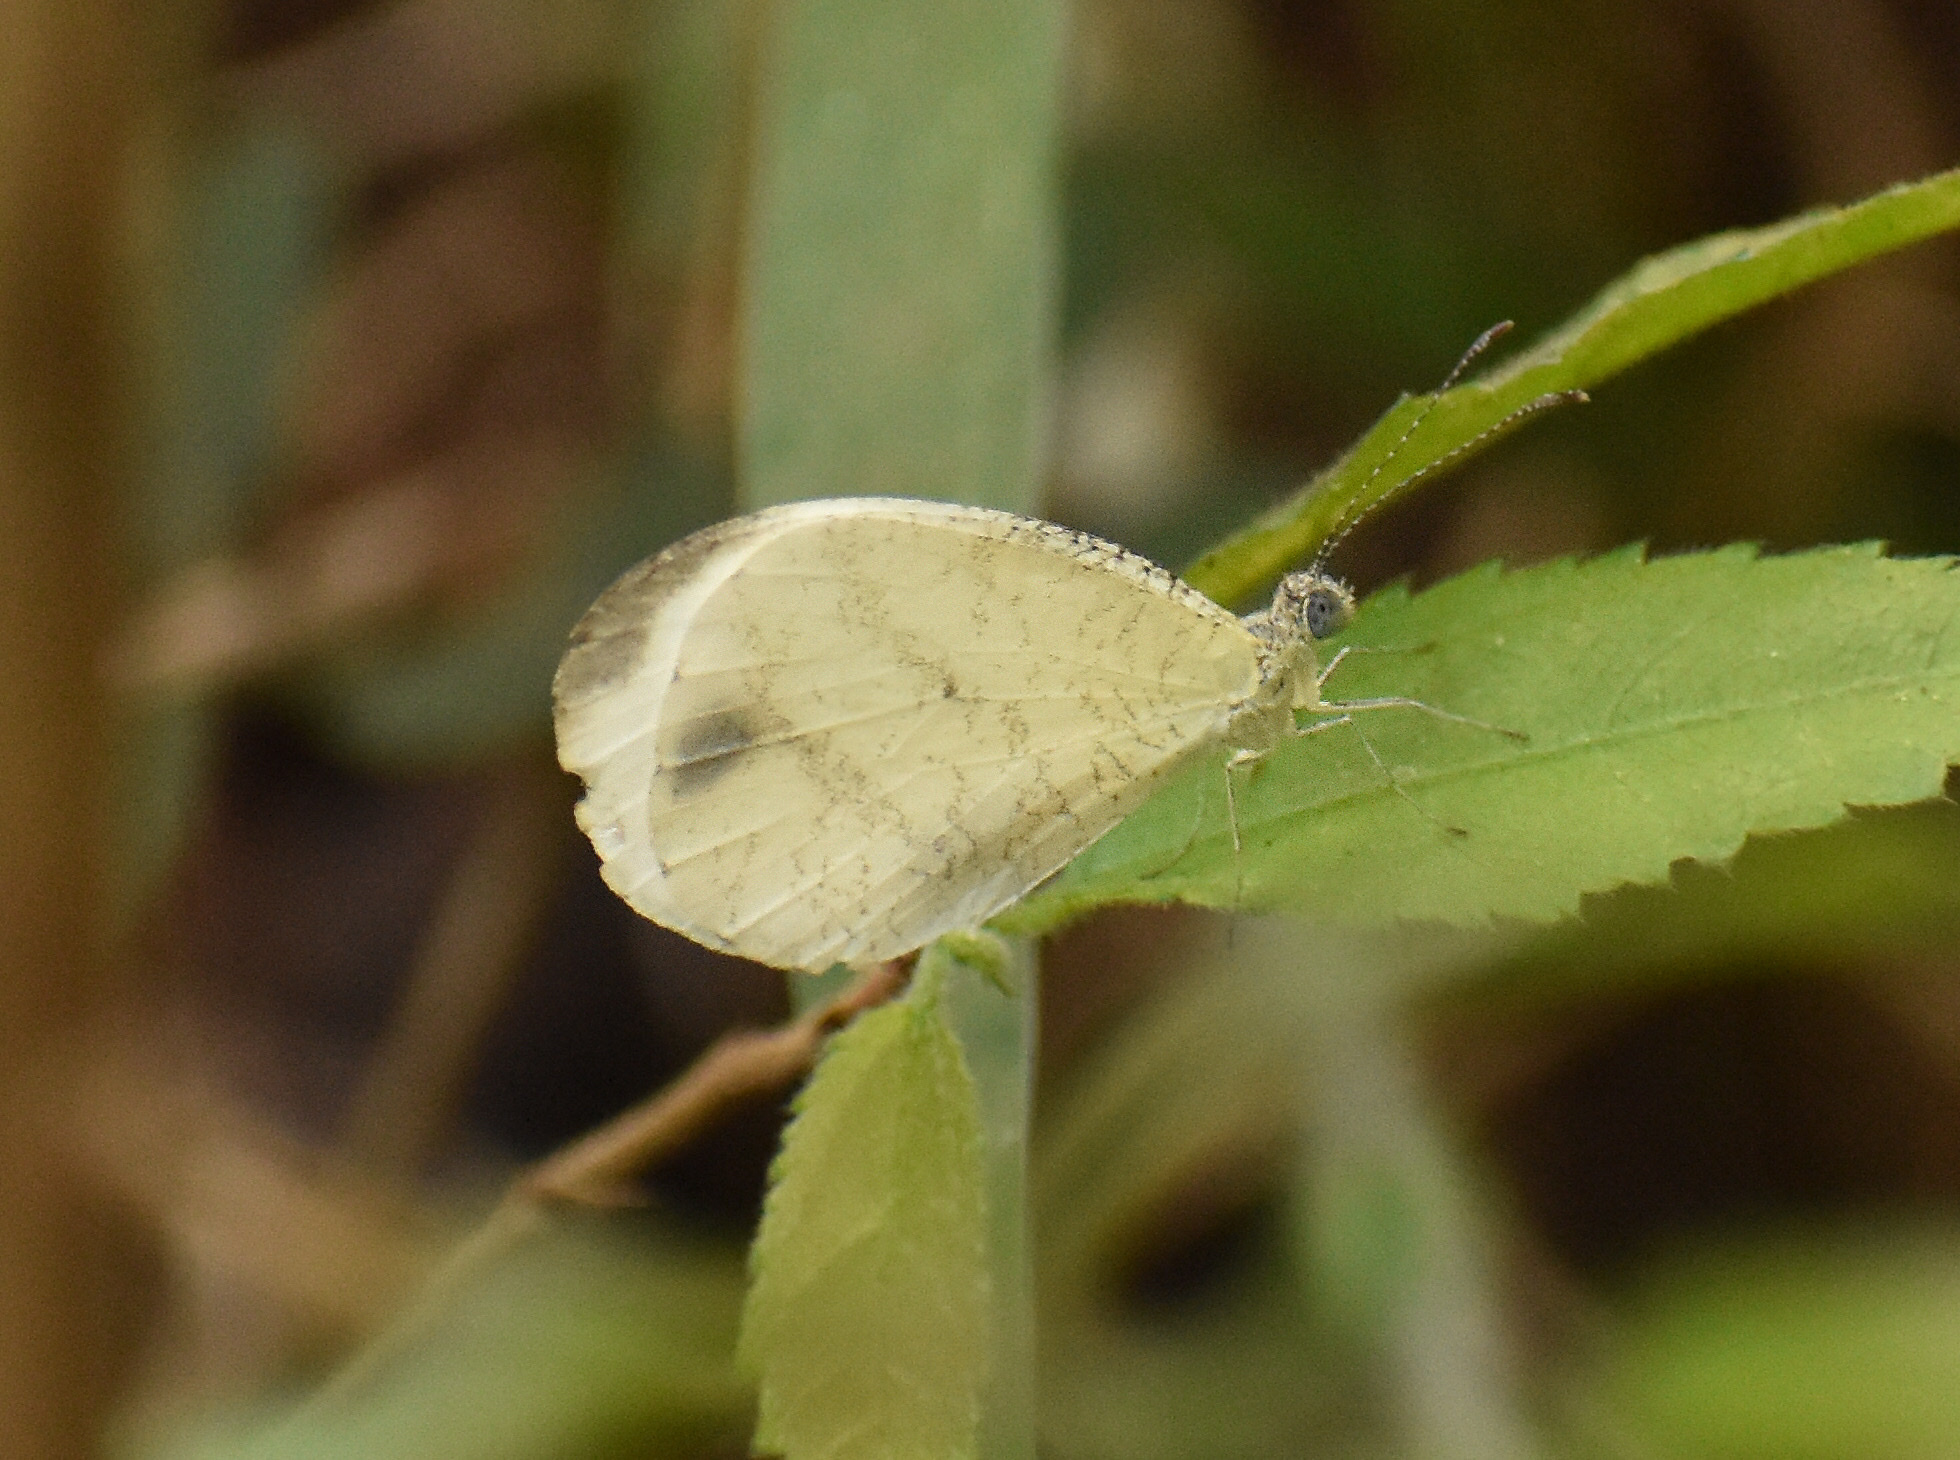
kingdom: Animalia
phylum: Arthropoda
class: Insecta
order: Lepidoptera
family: Pieridae
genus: Leptosia
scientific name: Leptosia alcesta
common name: African wood white
